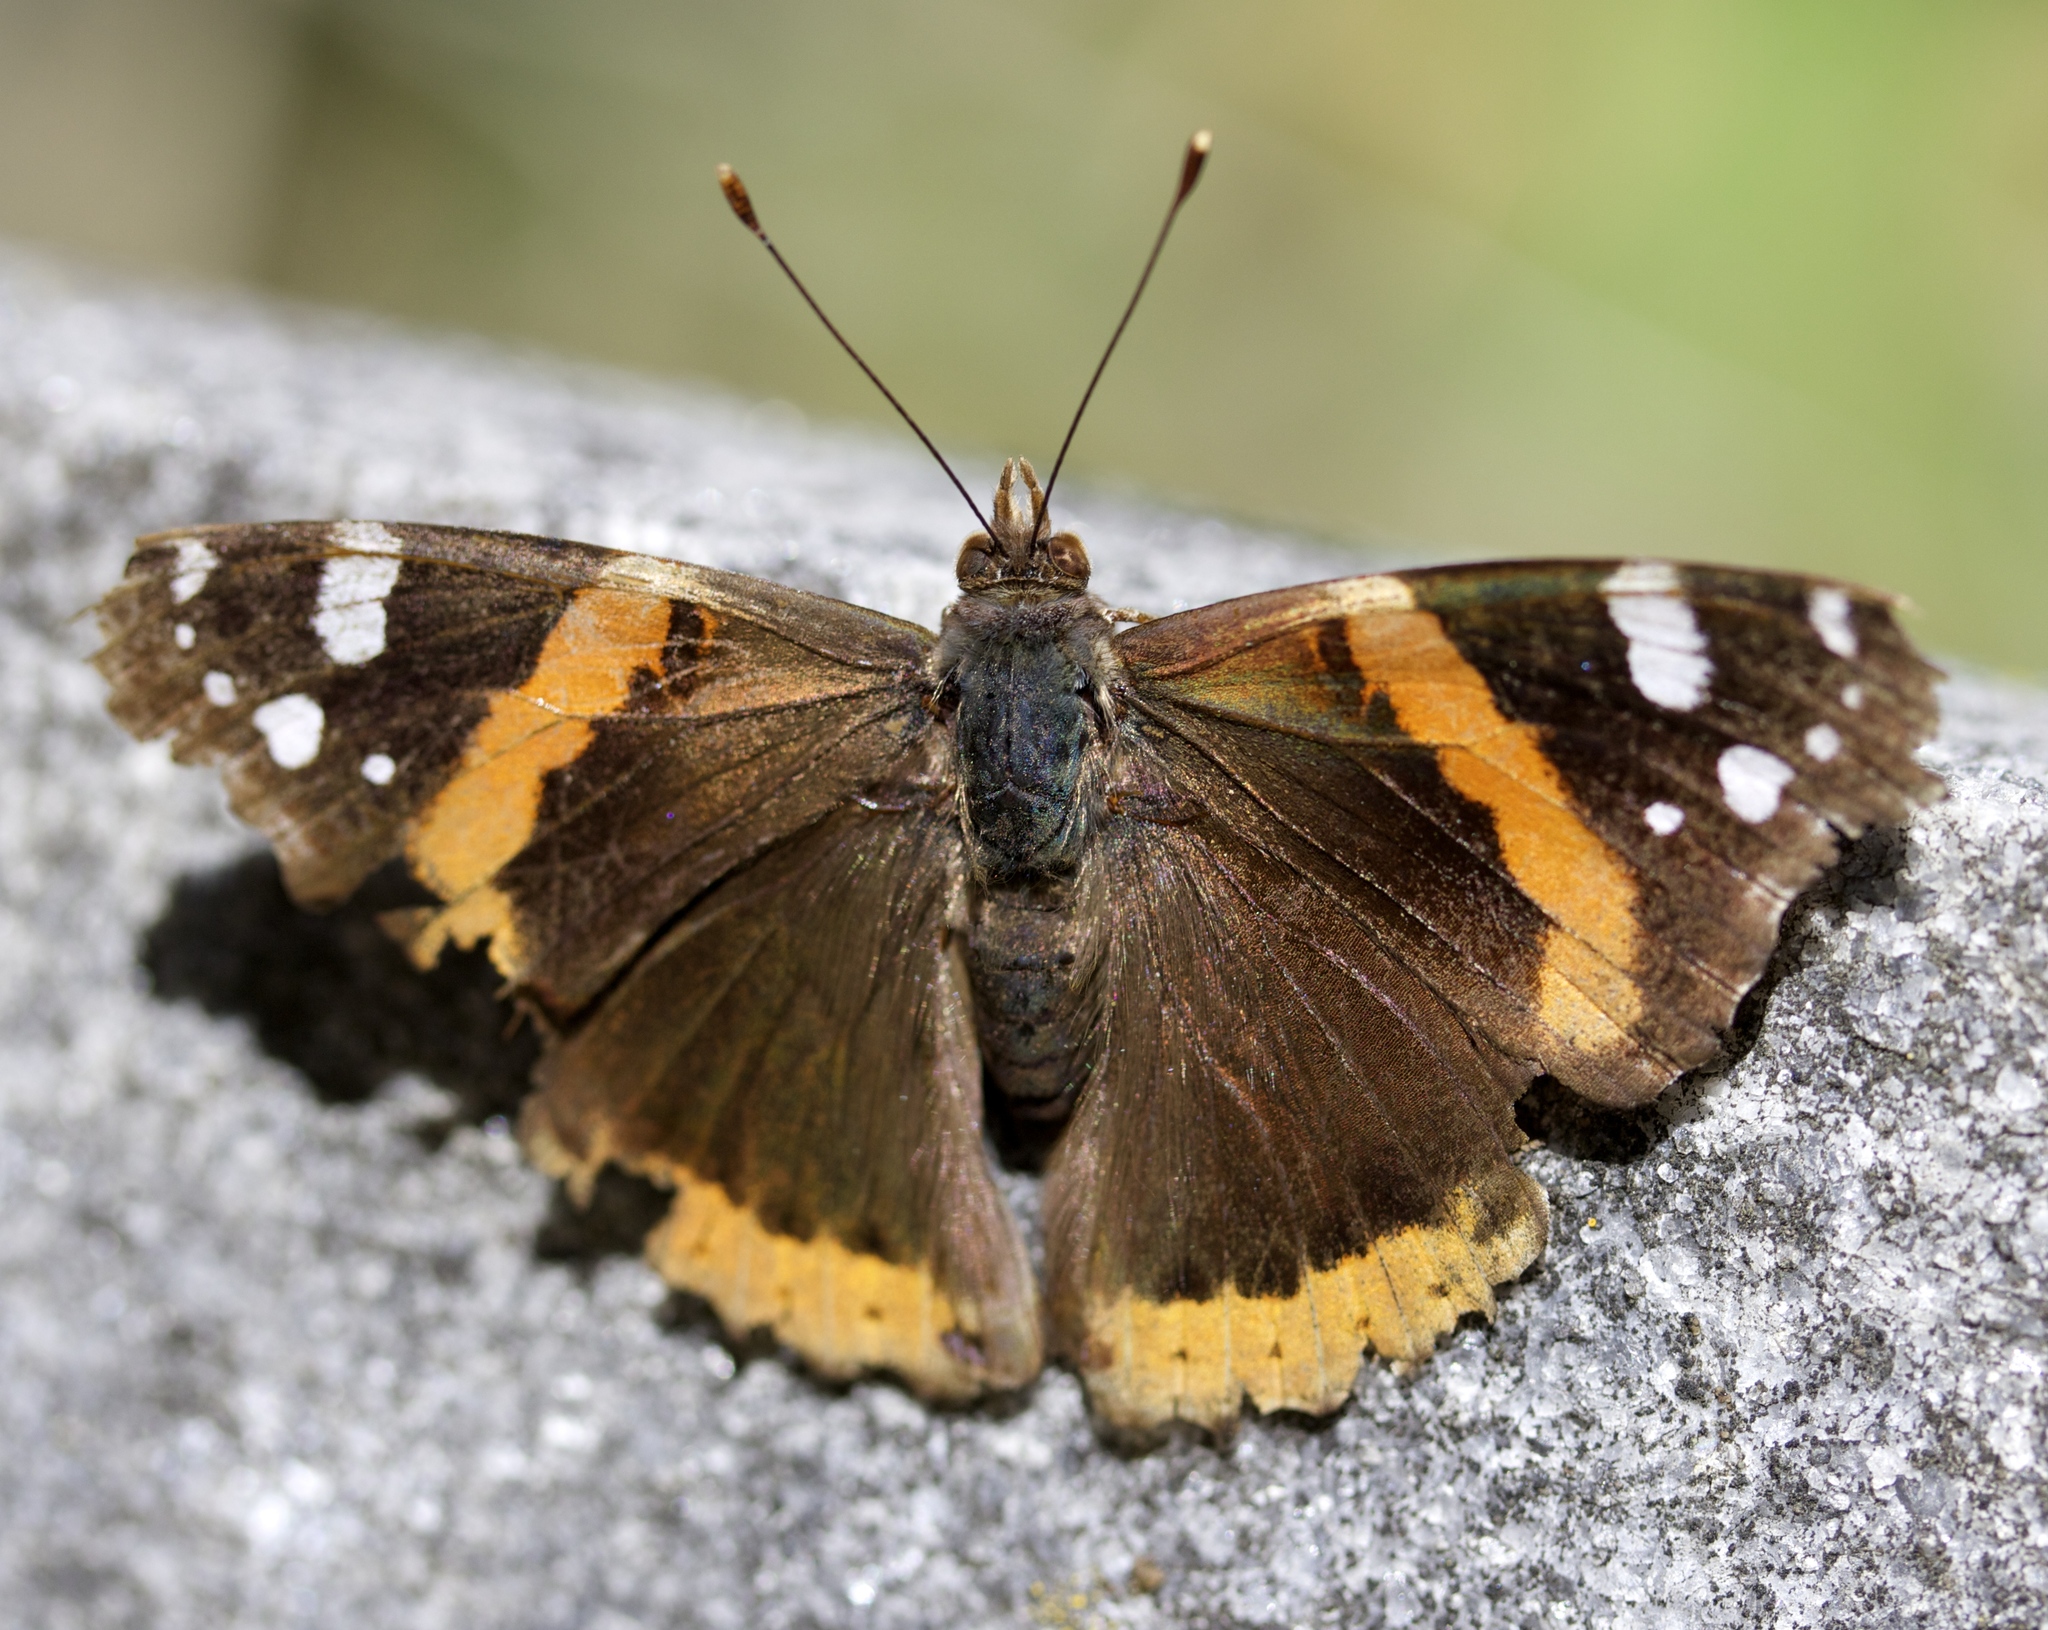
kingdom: Animalia
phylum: Arthropoda
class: Insecta
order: Lepidoptera
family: Nymphalidae
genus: Vanessa
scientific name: Vanessa atalanta
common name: Red admiral
